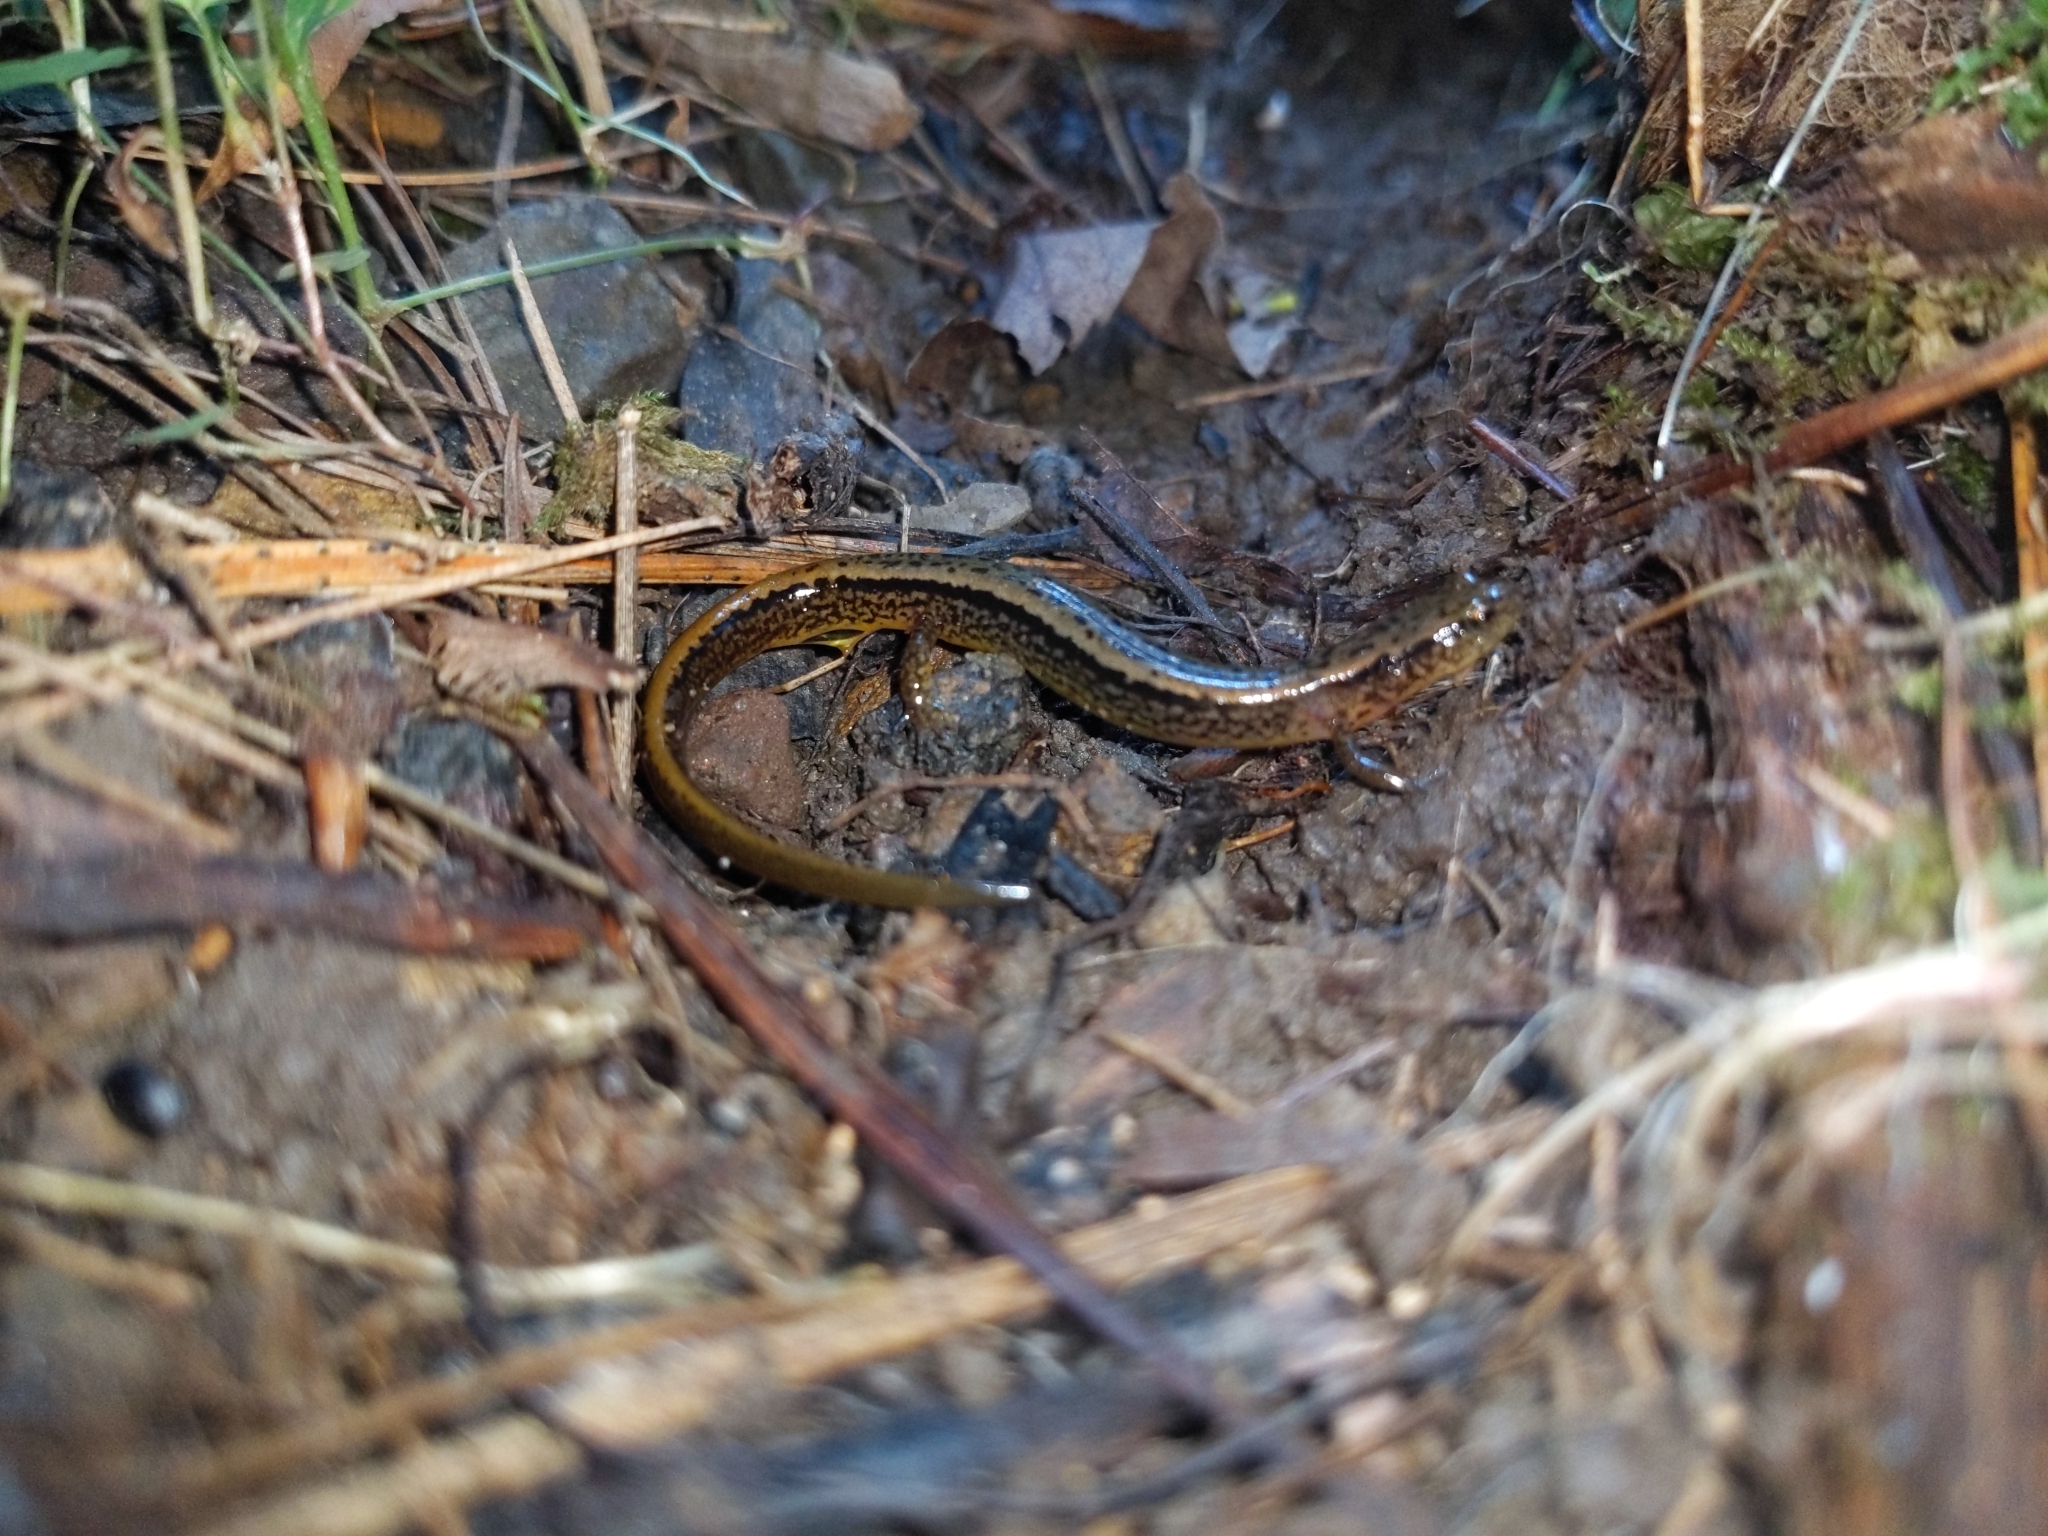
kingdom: Animalia
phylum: Chordata
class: Amphibia
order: Caudata
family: Plethodontidae
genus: Eurycea
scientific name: Eurycea bislineata
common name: Northern two-lined salamander
